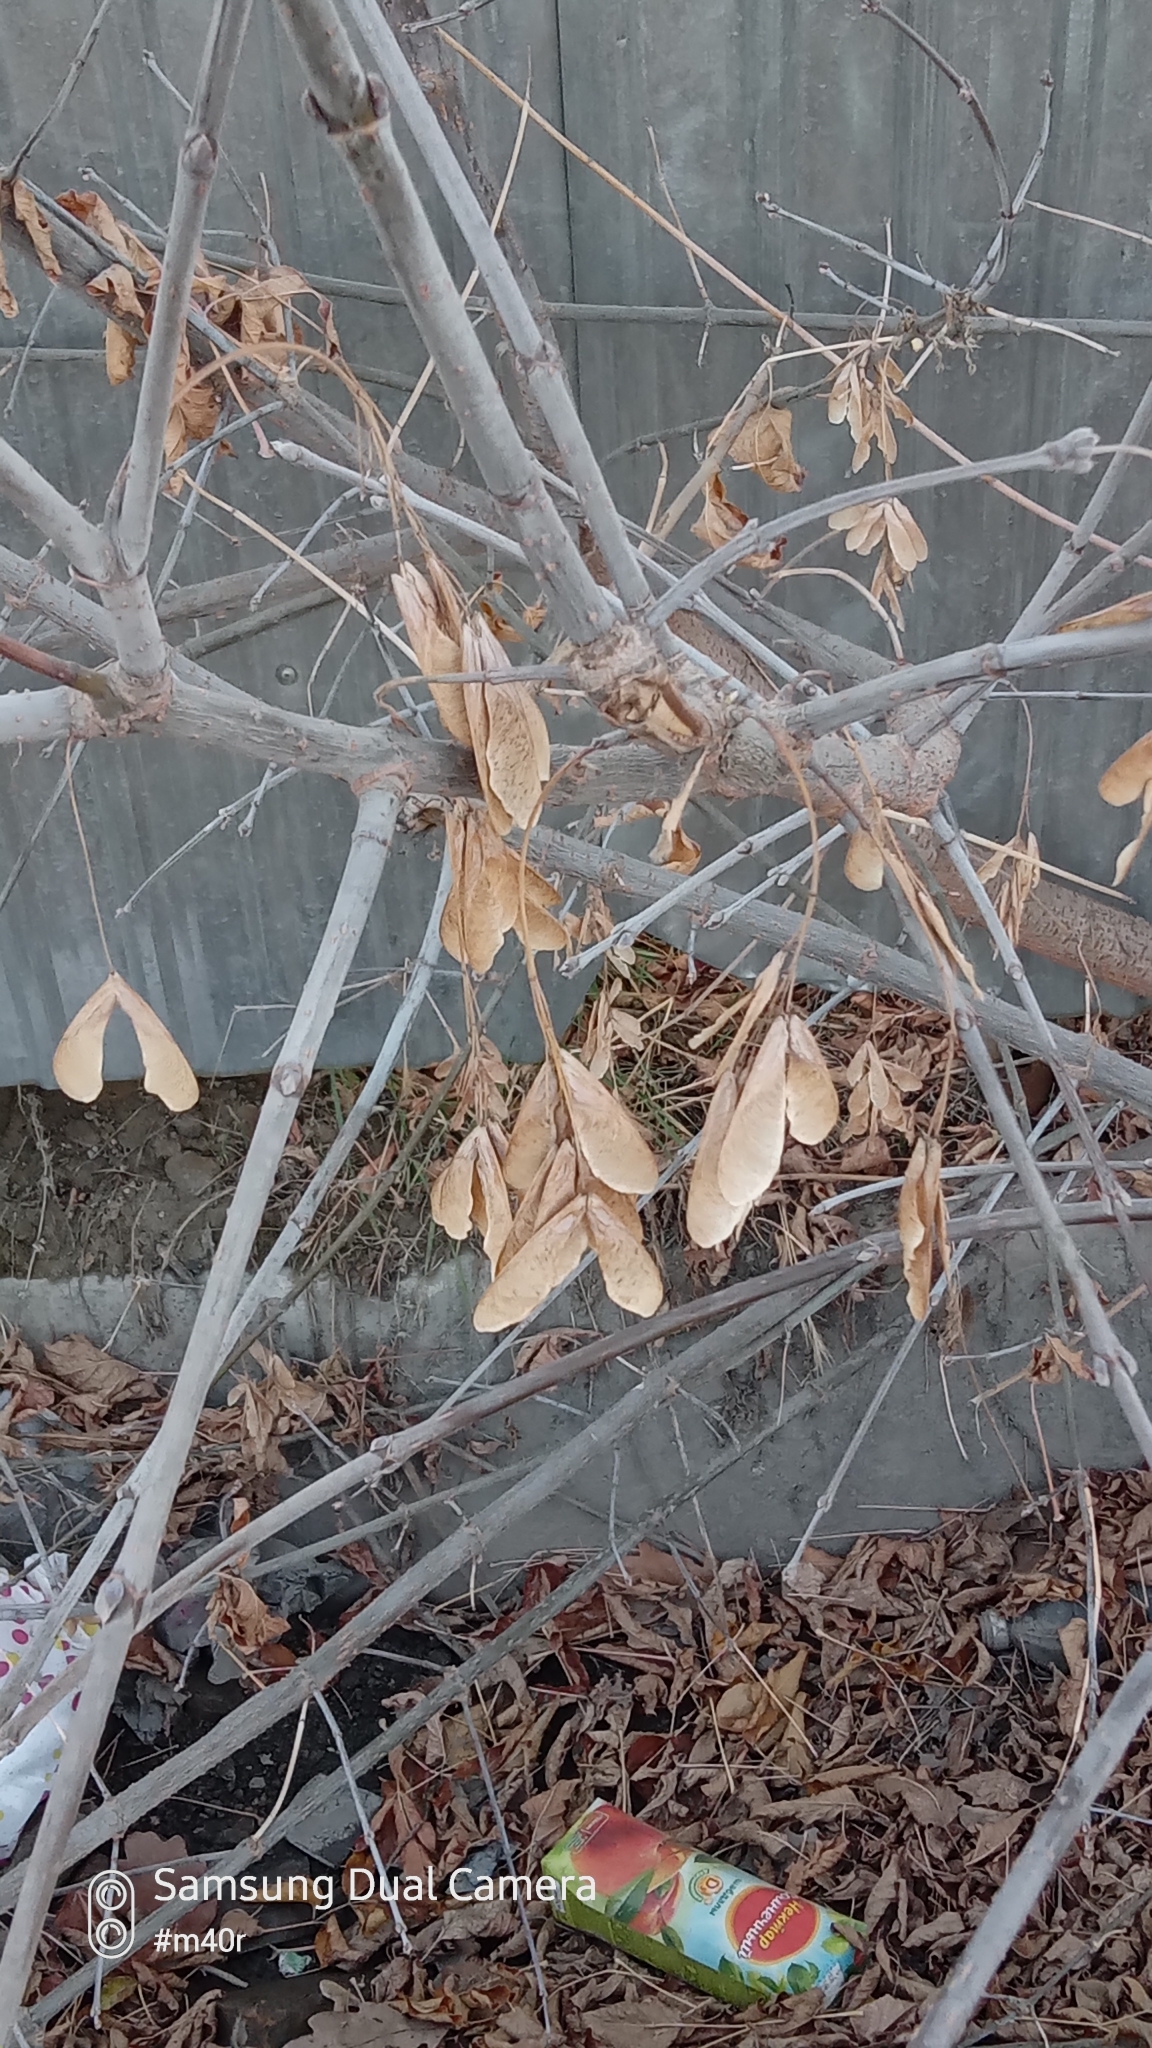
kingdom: Plantae
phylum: Tracheophyta
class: Magnoliopsida
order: Sapindales
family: Sapindaceae
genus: Acer
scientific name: Acer negundo
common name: Ashleaf maple
